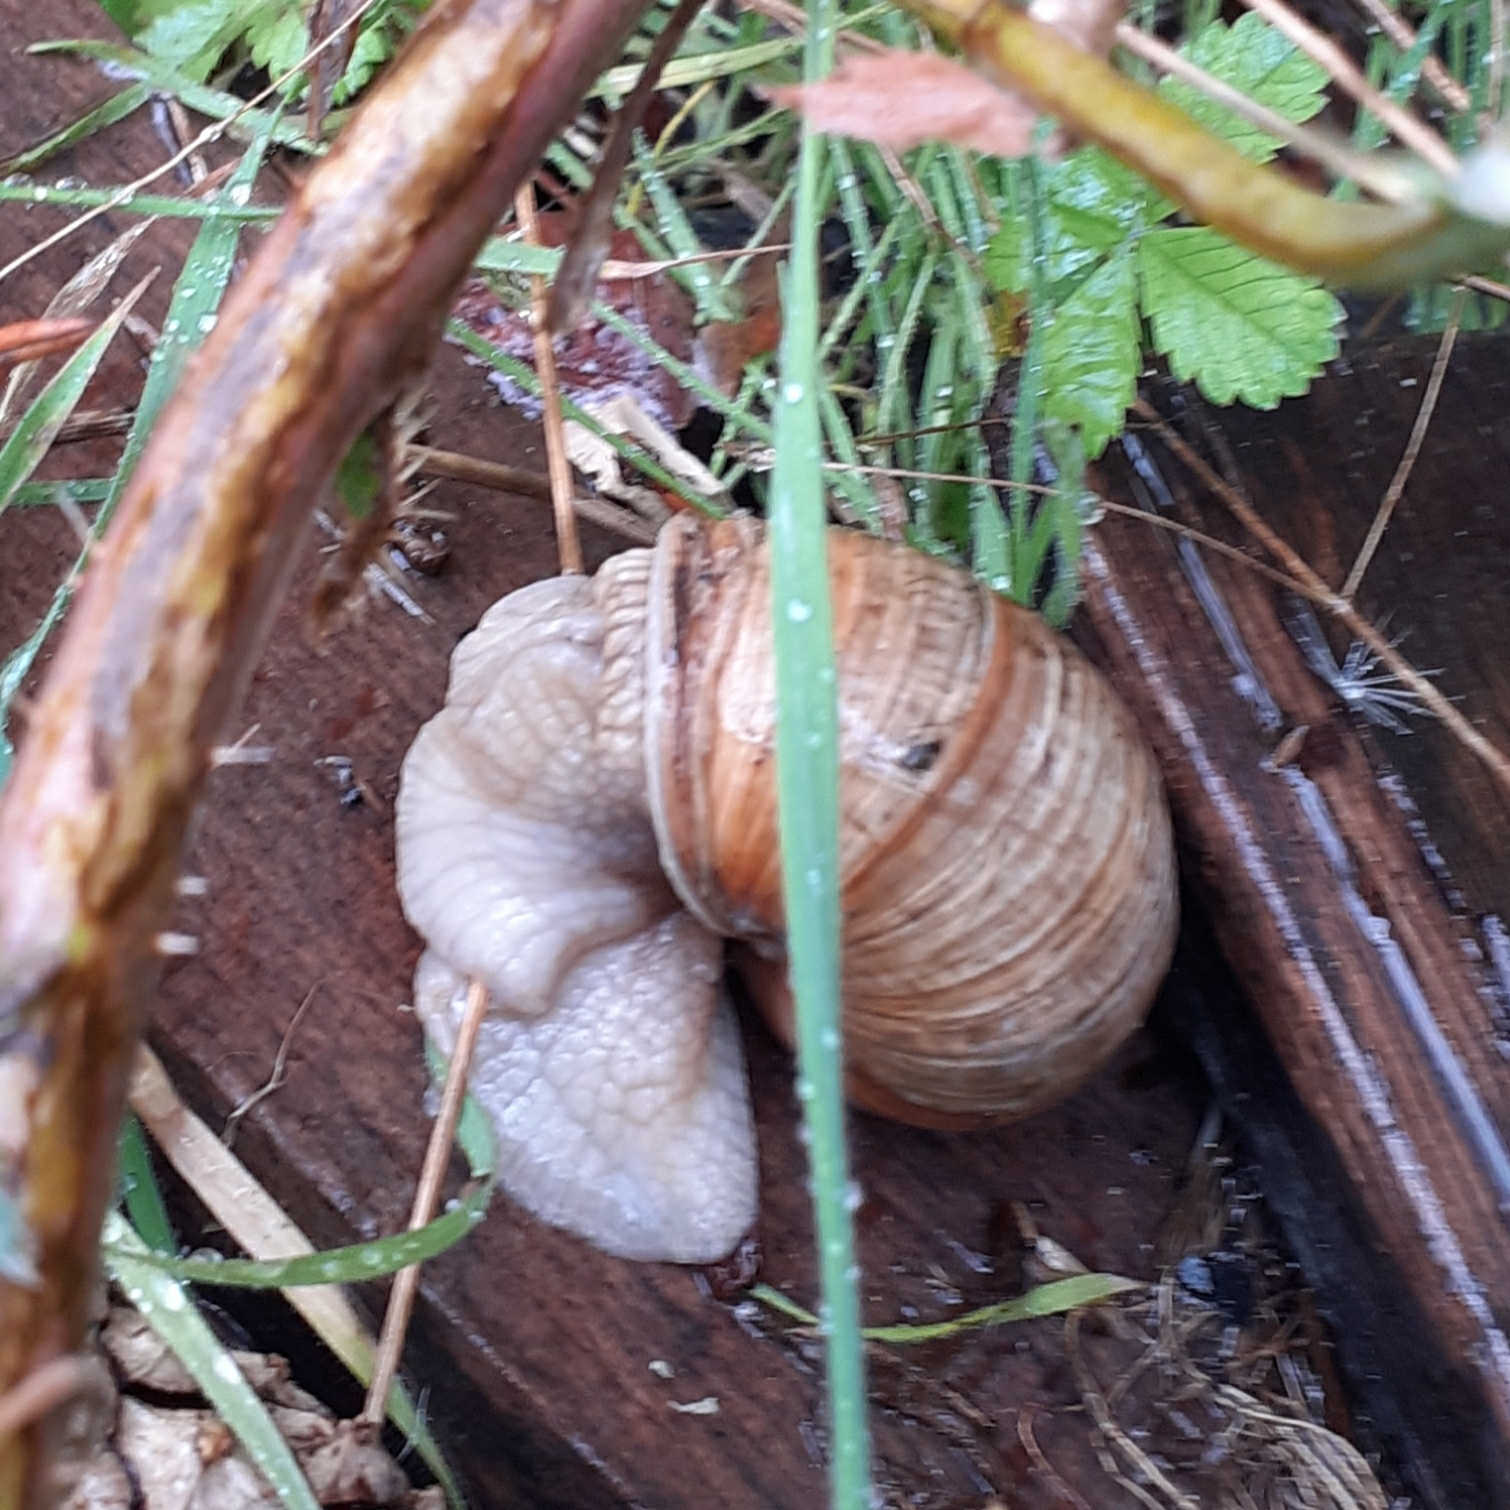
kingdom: Animalia
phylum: Mollusca
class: Gastropoda
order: Stylommatophora
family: Helicidae
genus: Helix
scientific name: Helix pomatia
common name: Roman snail
